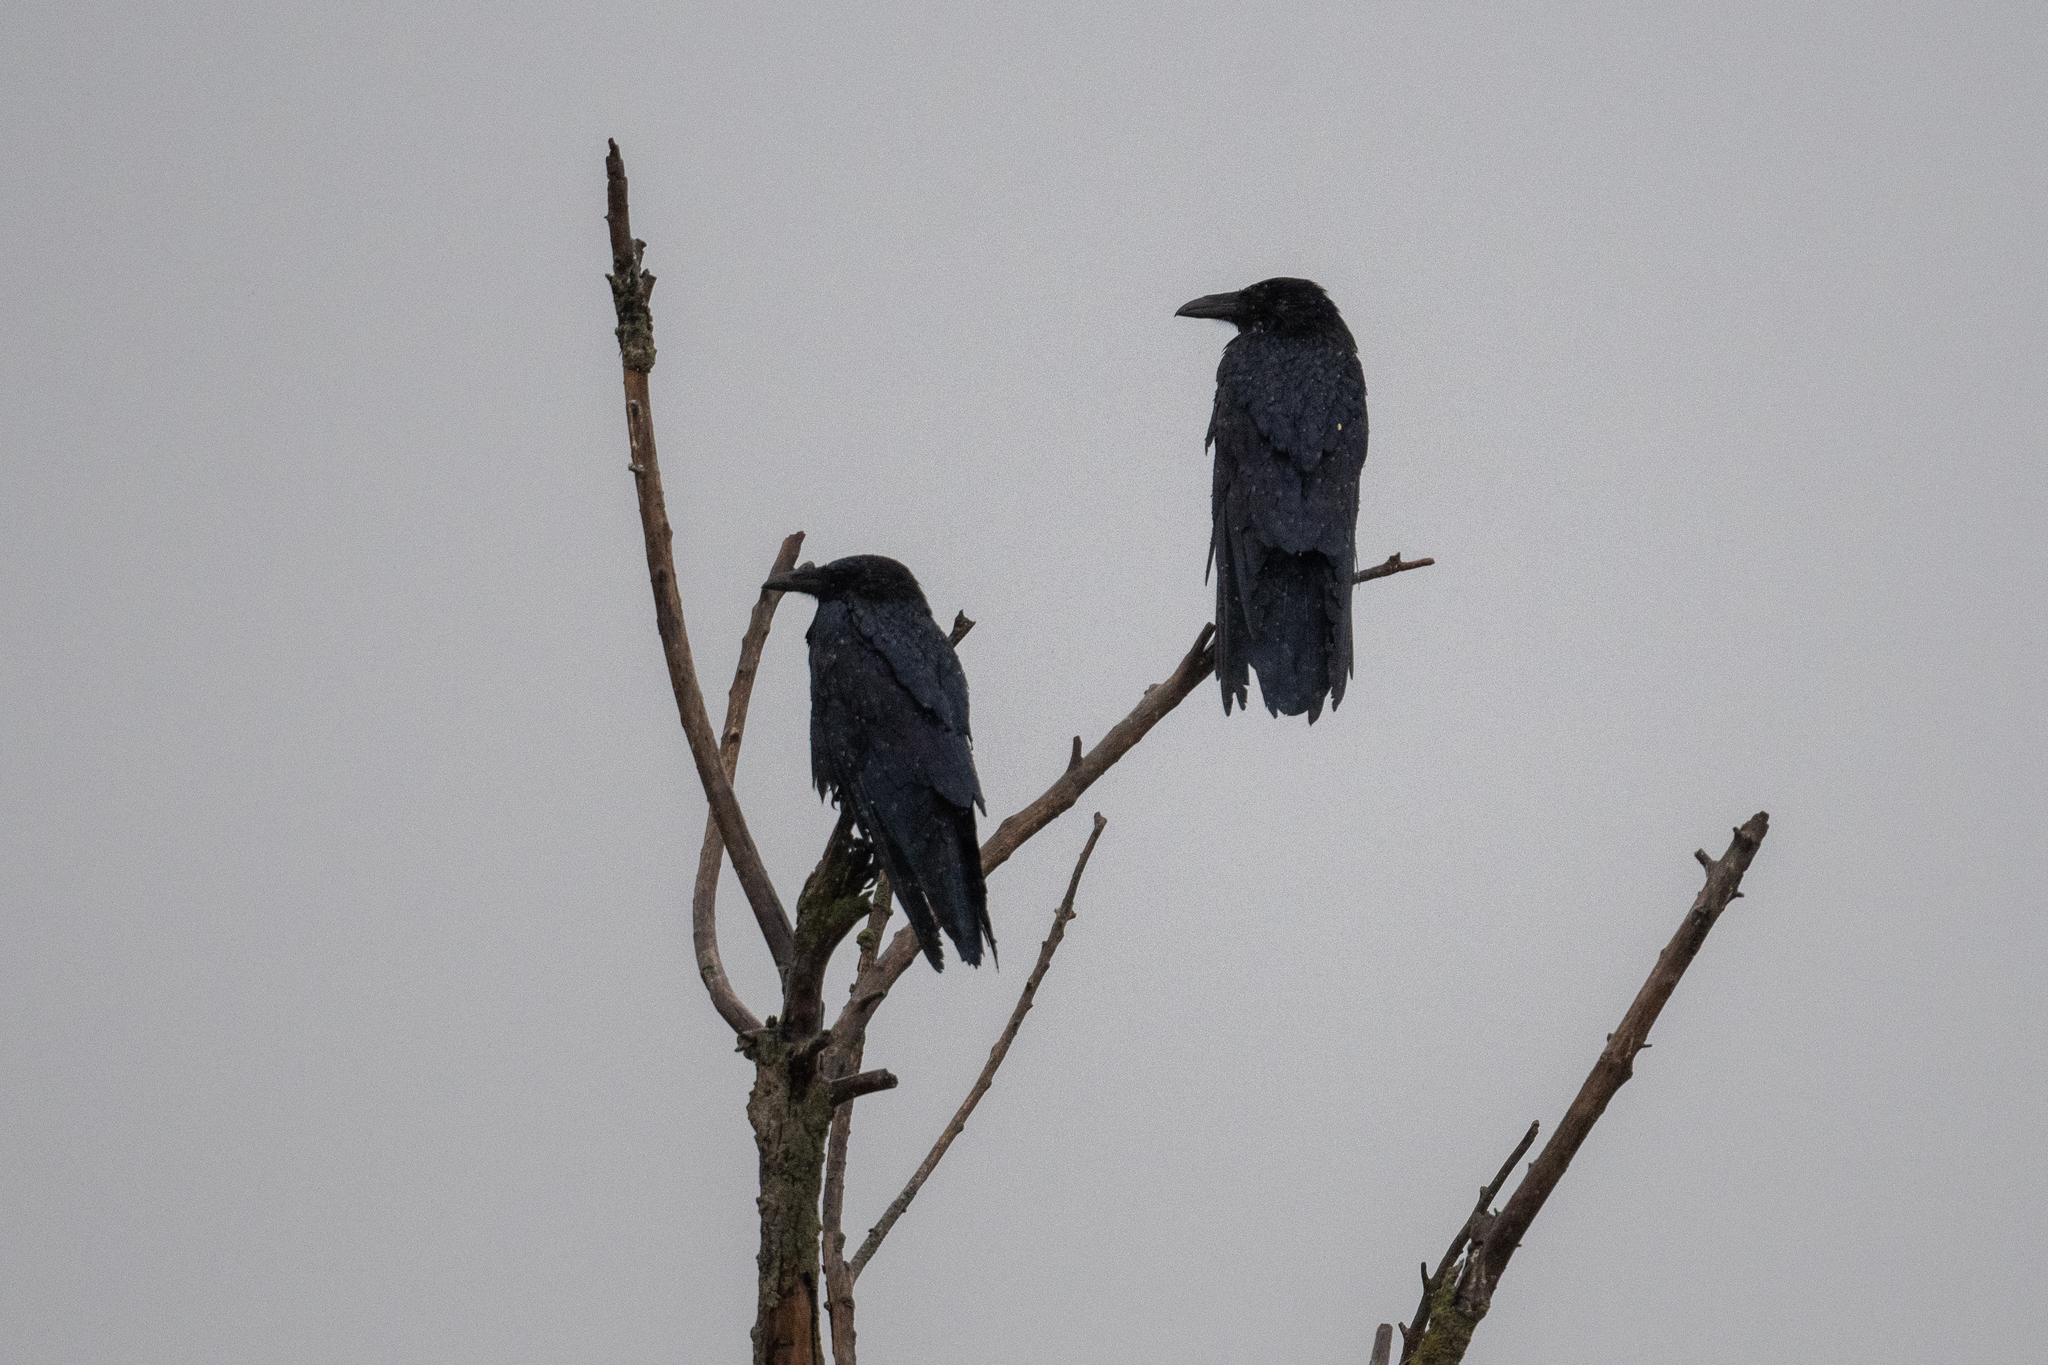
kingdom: Animalia
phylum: Chordata
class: Aves
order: Passeriformes
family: Corvidae
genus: Corvus
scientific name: Corvus corax
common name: Common raven
